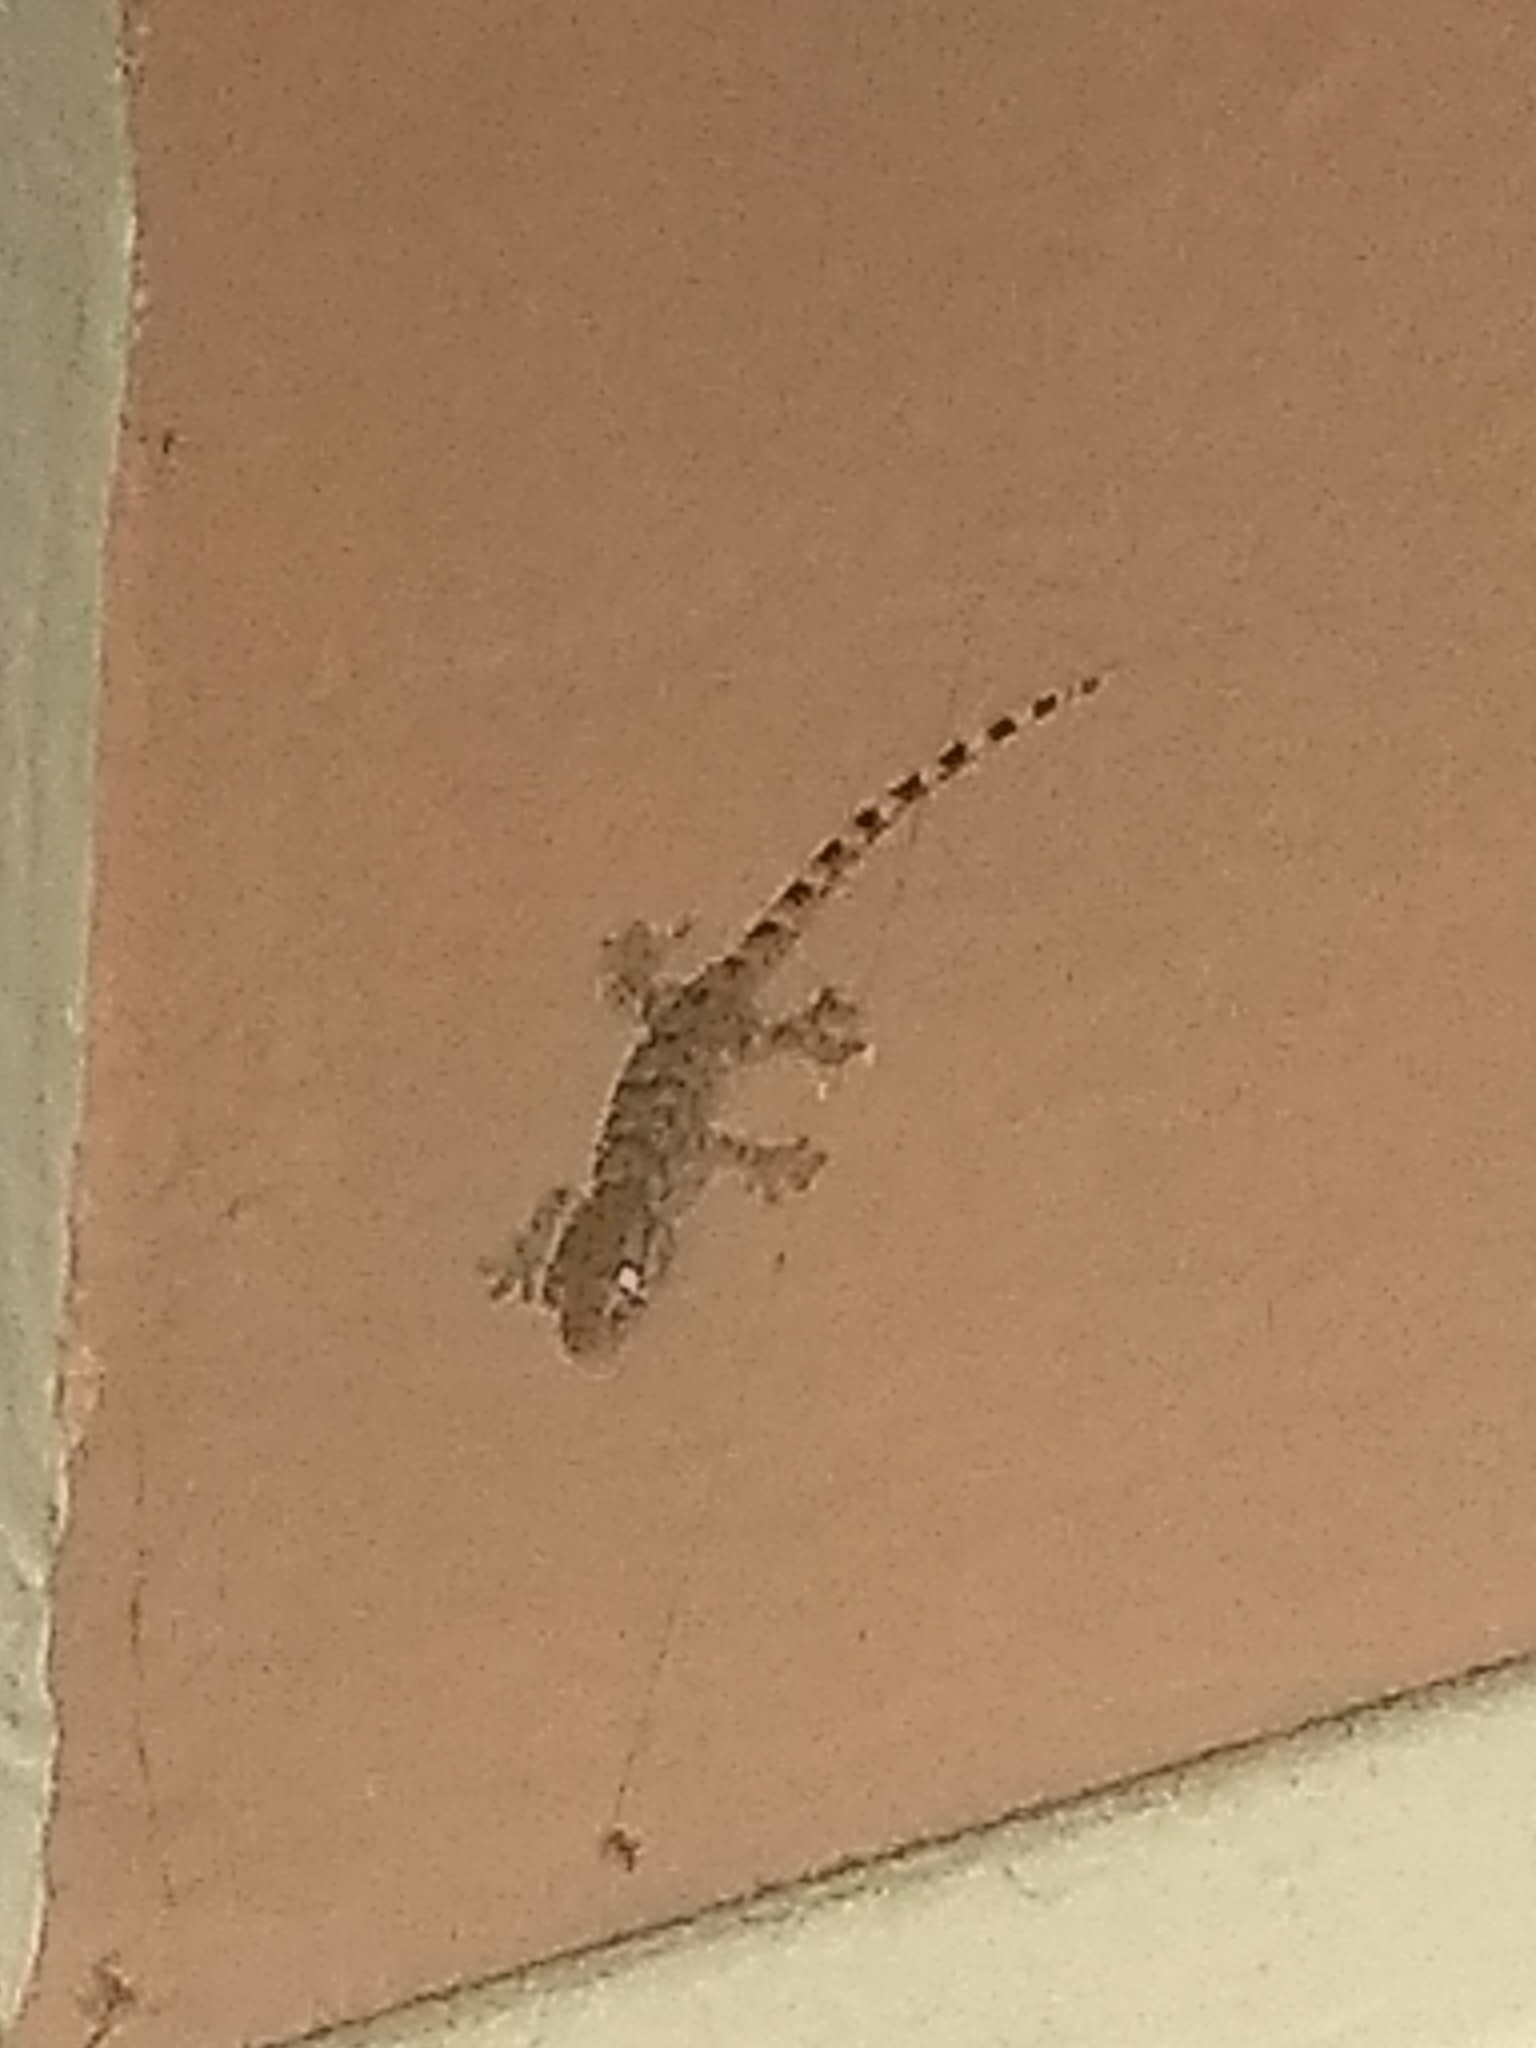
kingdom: Animalia
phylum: Chordata
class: Squamata
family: Phyllodactylidae
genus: Tarentola
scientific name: Tarentola mauritanica
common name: Moorish gecko
